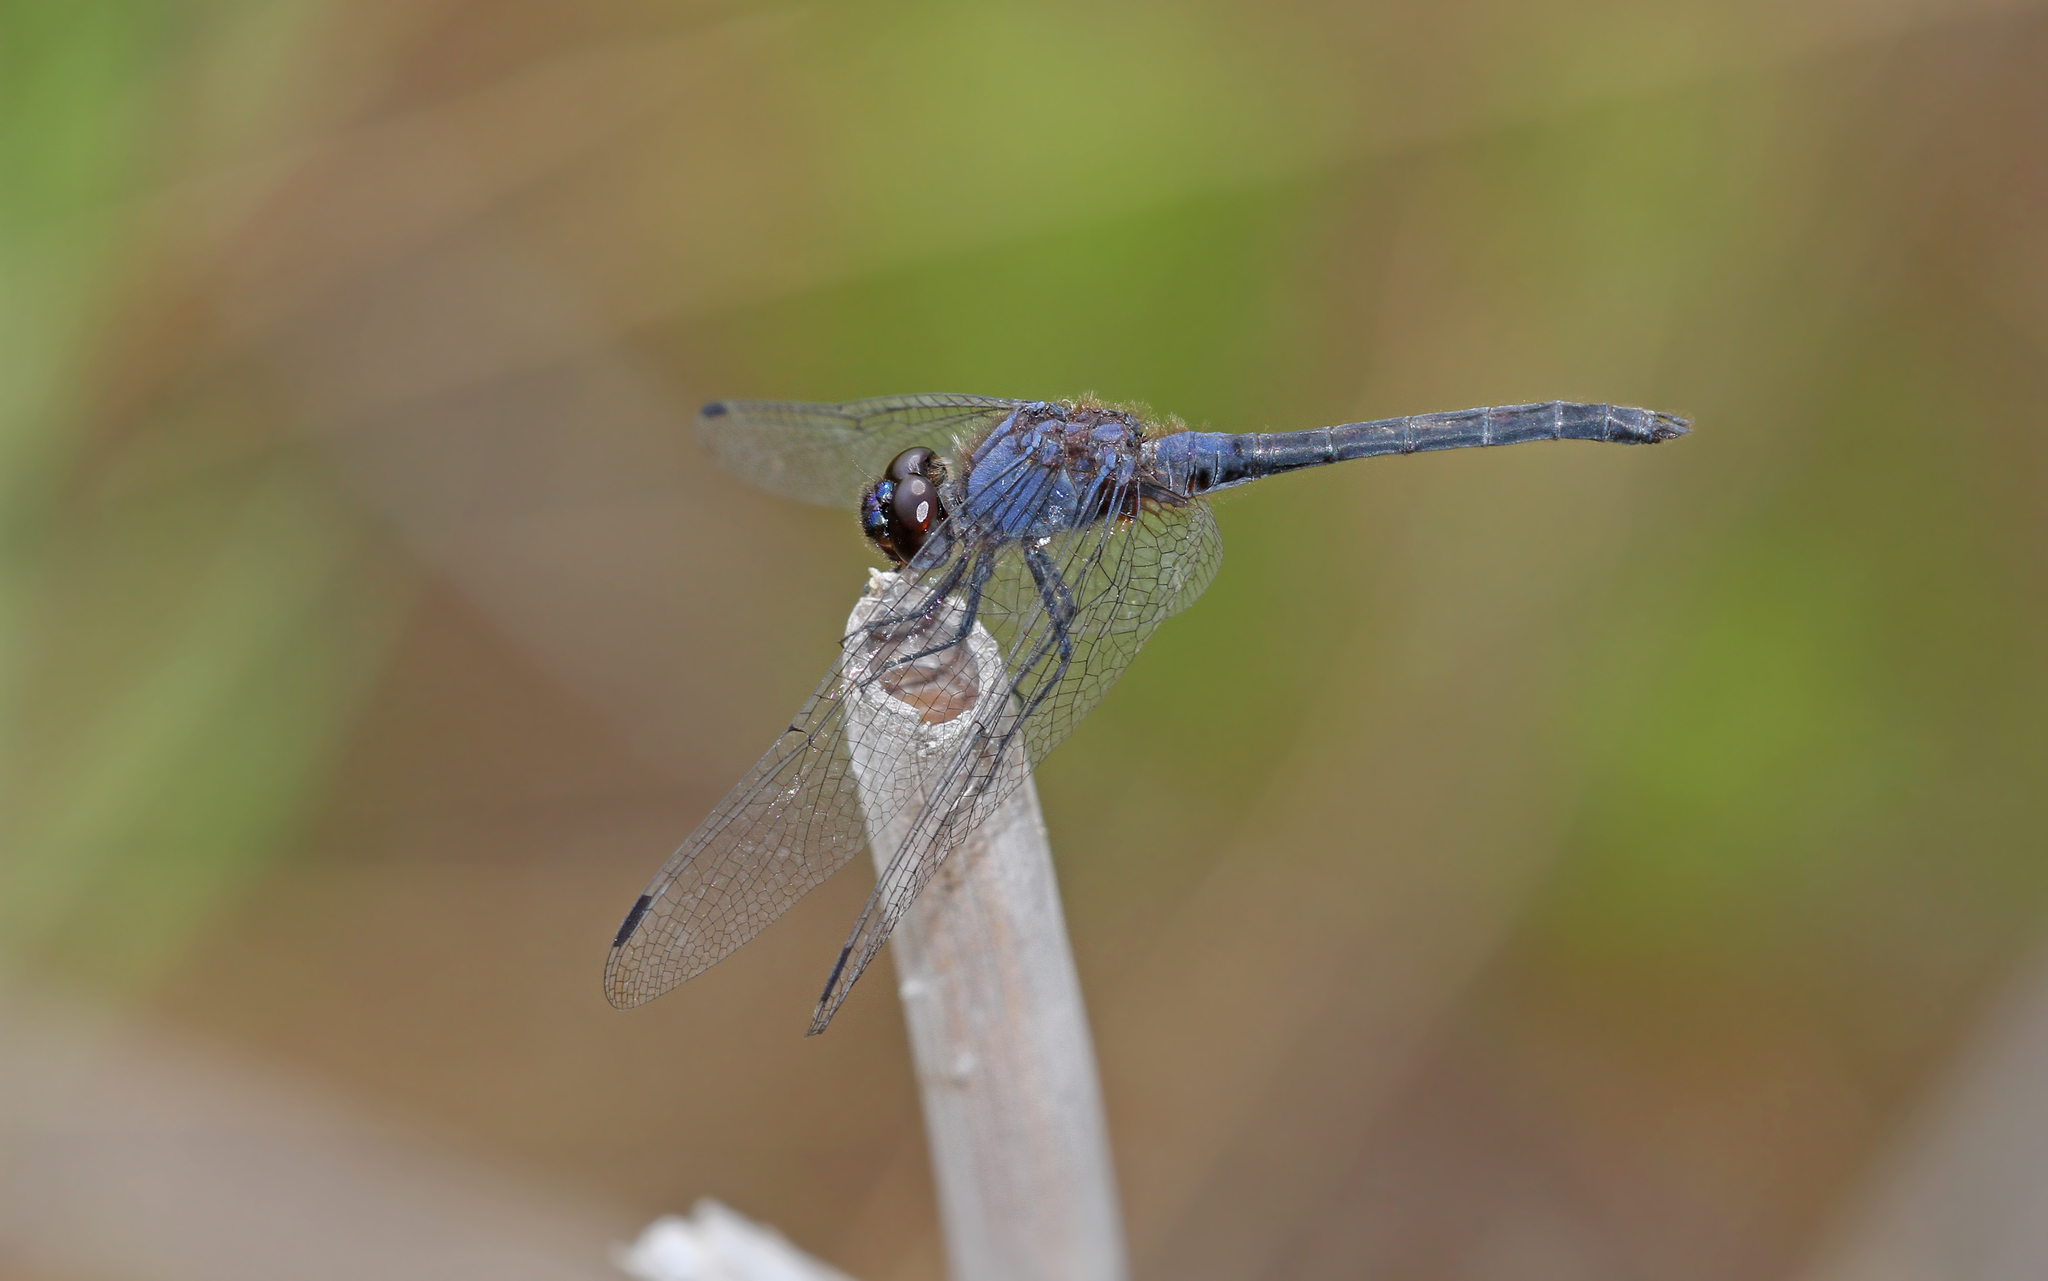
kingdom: Animalia
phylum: Arthropoda
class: Insecta
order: Odonata
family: Libellulidae
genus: Trithemis
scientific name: Trithemis festiva
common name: Indigo dropwing
